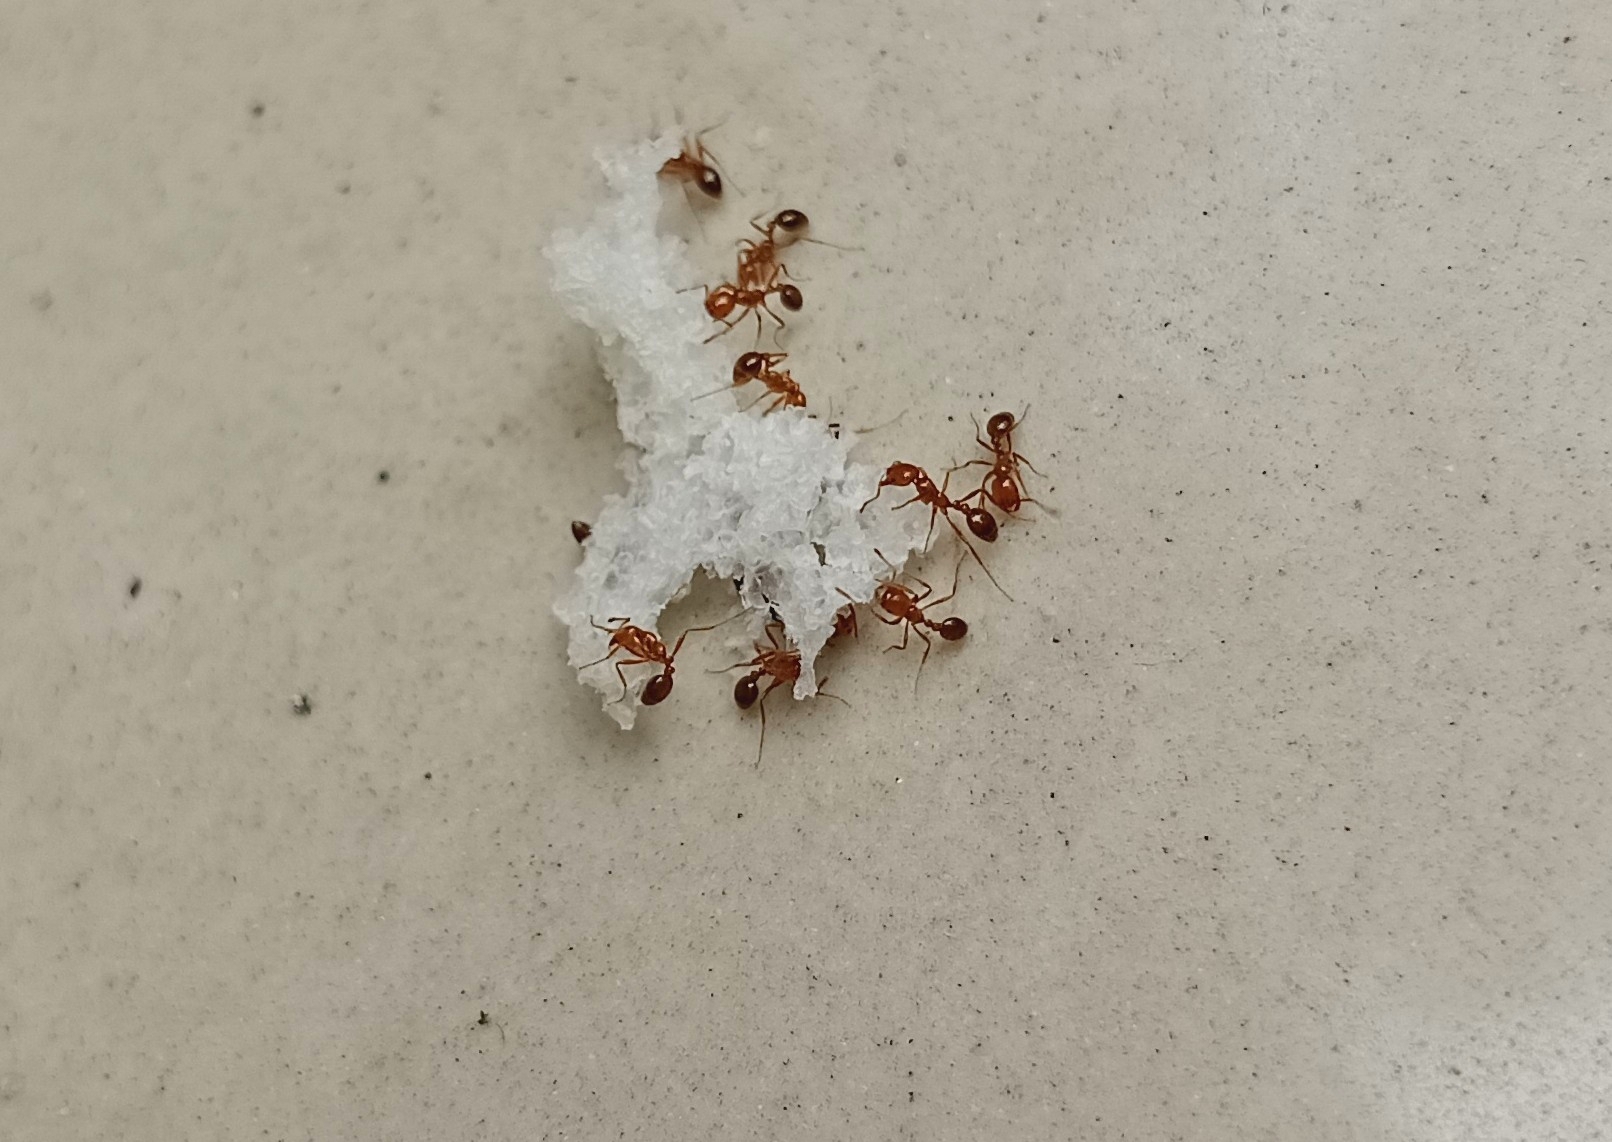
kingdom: Animalia
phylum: Arthropoda
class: Insecta
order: Hymenoptera
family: Formicidae
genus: Solenopsis
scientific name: Solenopsis geminata
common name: Tropical fire ant
